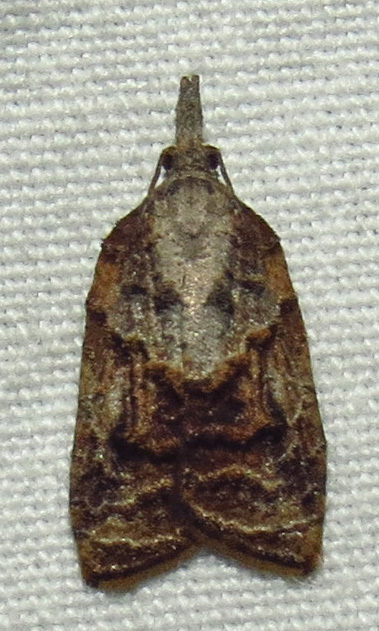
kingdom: Animalia
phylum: Arthropoda
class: Insecta
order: Lepidoptera
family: Tortricidae
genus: Platynota
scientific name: Platynota idaeusalis
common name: Tufted apple bud moth
